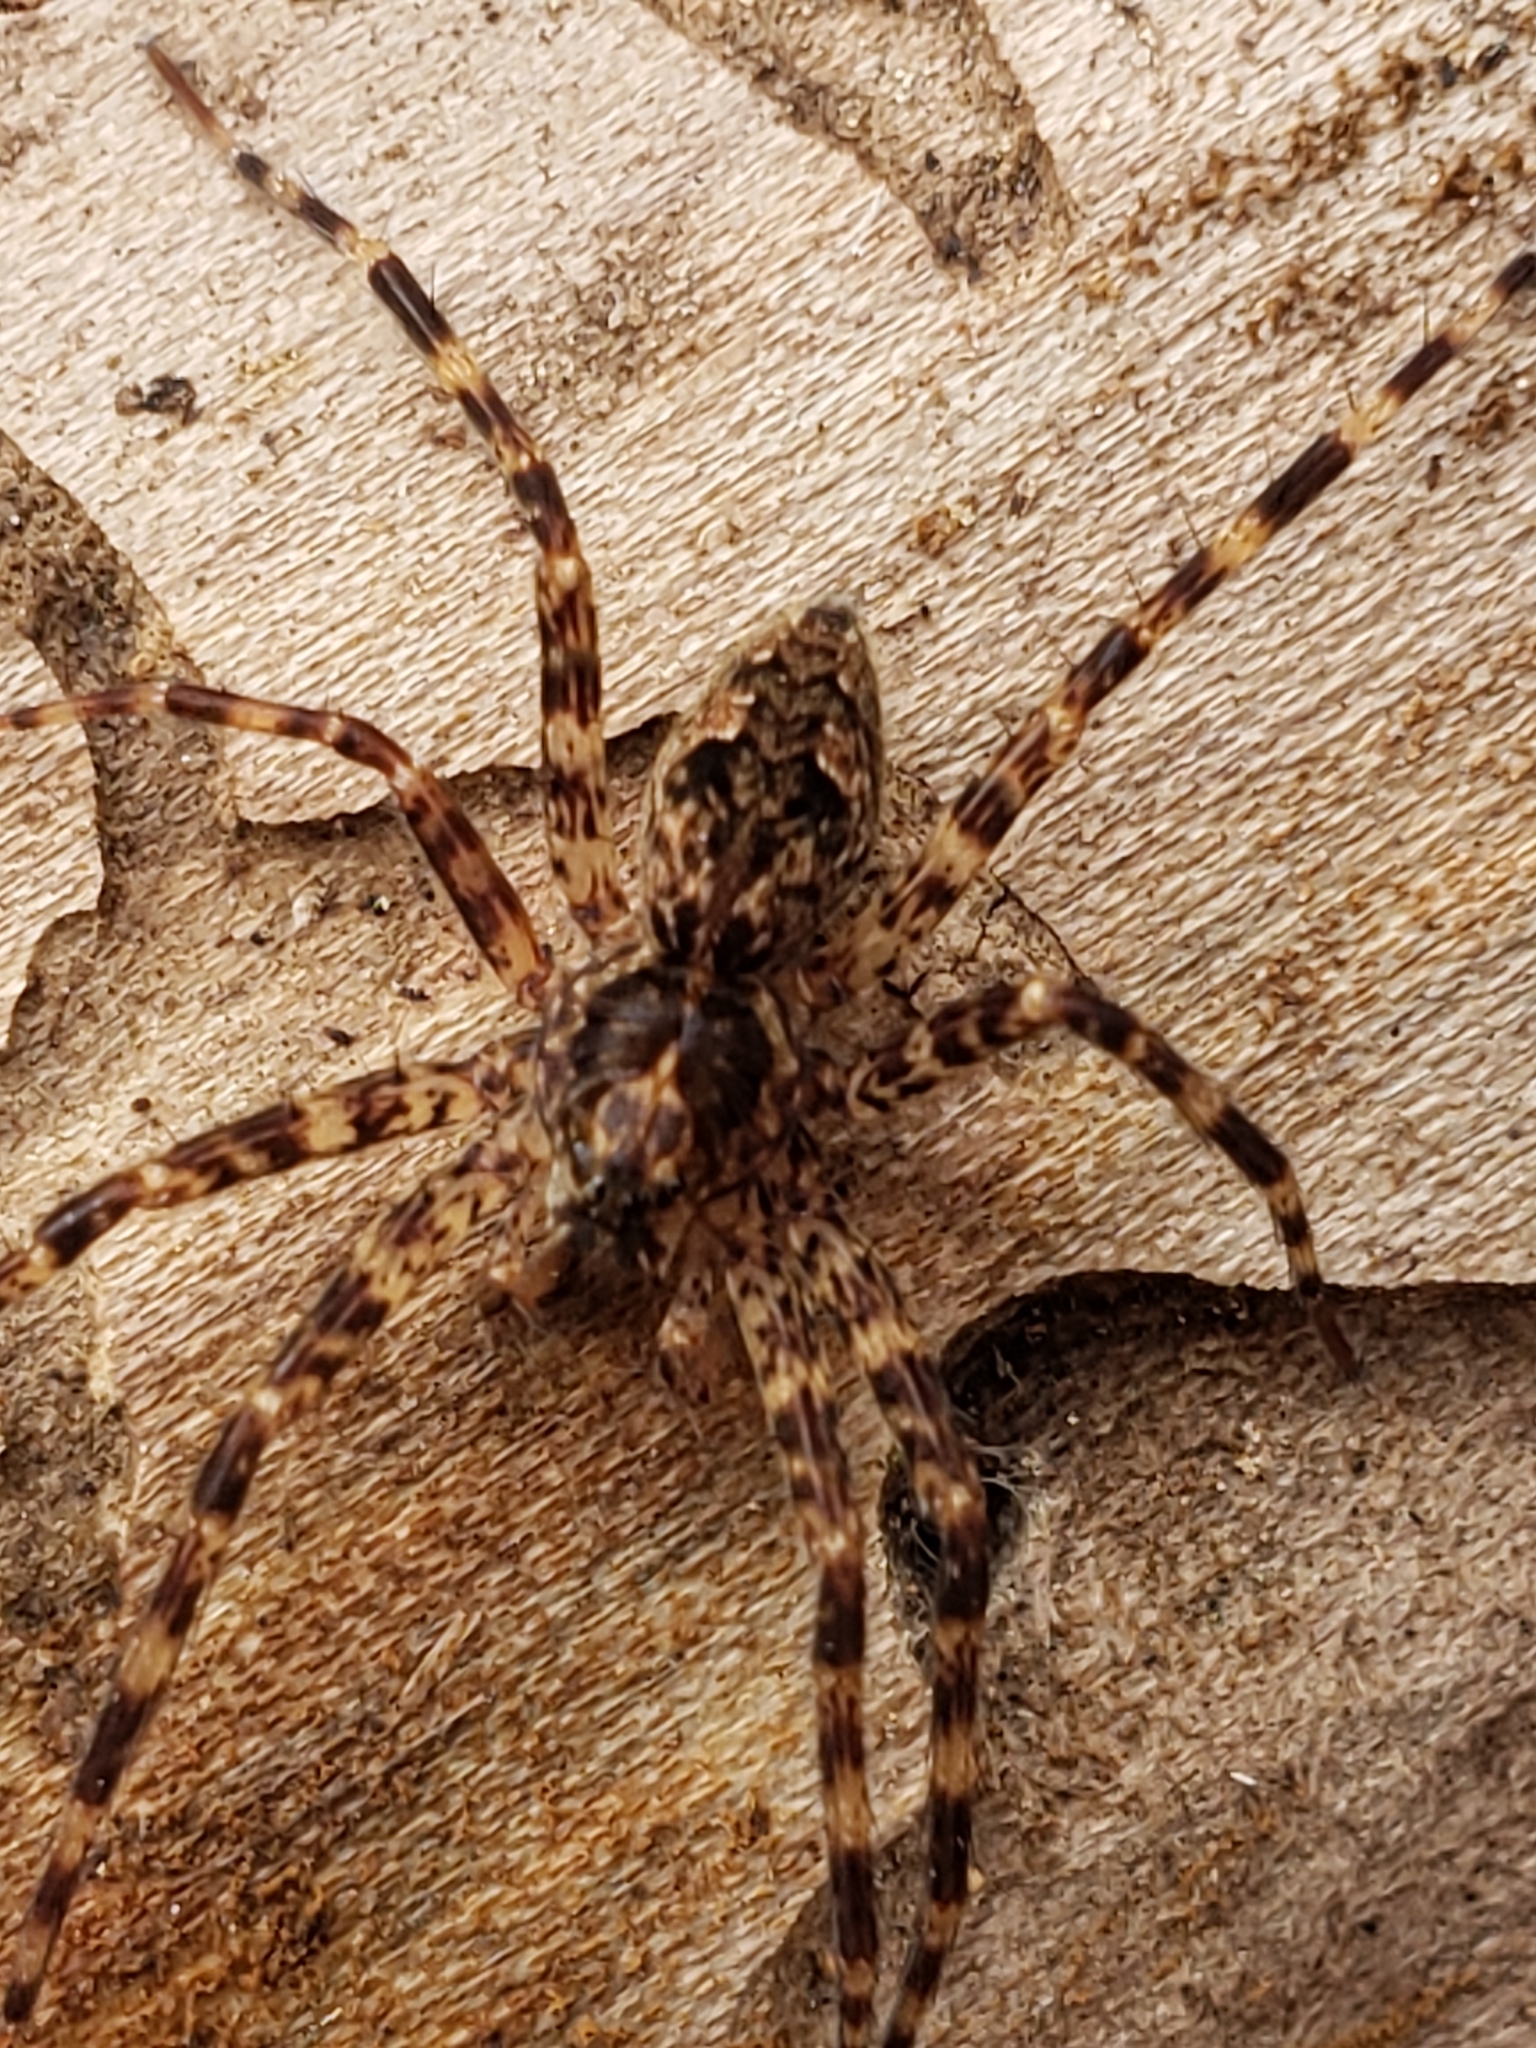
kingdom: Animalia
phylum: Arthropoda
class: Arachnida
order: Araneae
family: Pisauridae
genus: Dolomedes
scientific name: Dolomedes tenebrosus
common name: Dark fishing spider
